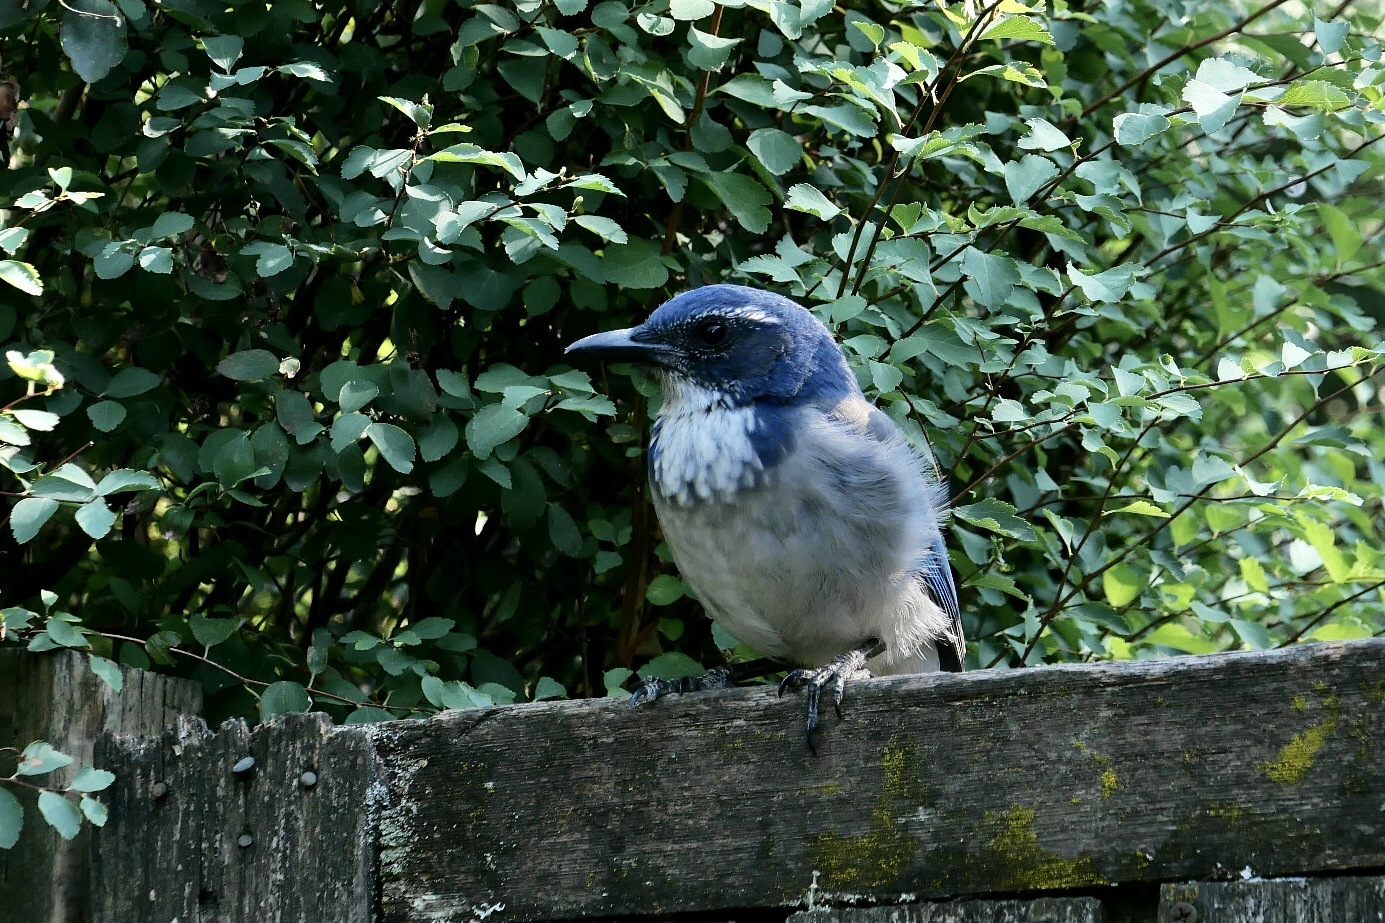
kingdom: Animalia
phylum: Chordata
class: Aves
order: Passeriformes
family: Corvidae
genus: Aphelocoma
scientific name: Aphelocoma californica
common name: California scrub-jay
